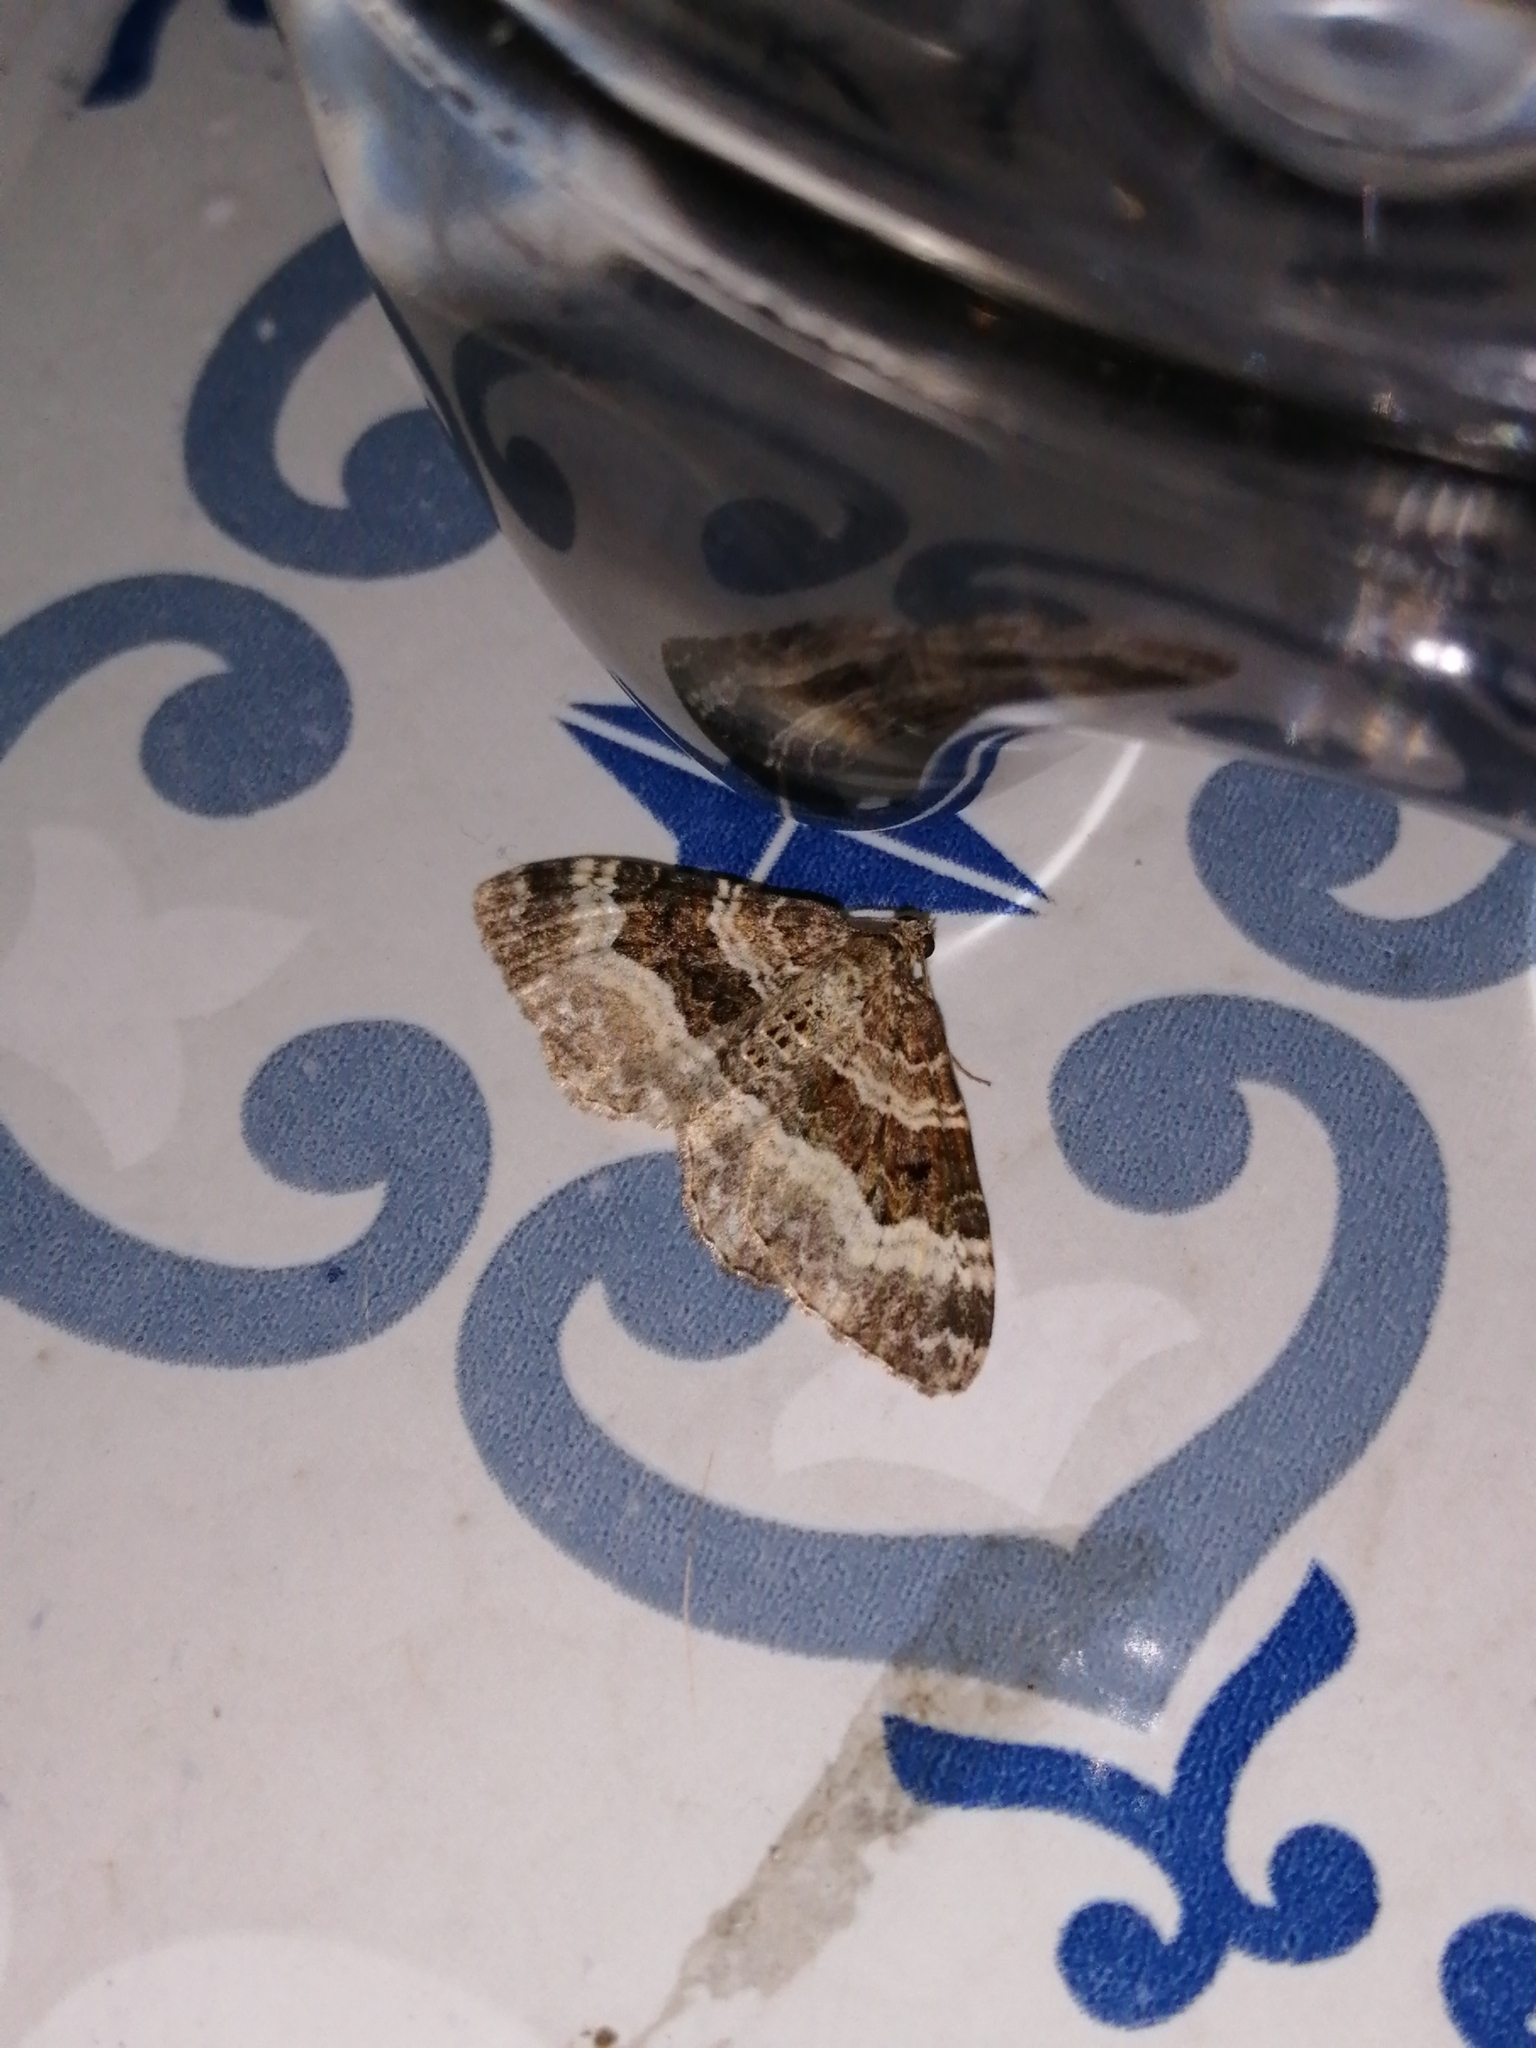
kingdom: Animalia
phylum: Arthropoda
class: Insecta
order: Lepidoptera
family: Geometridae
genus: Epirrhoe
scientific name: Epirrhoe alternata
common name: Common carpet
